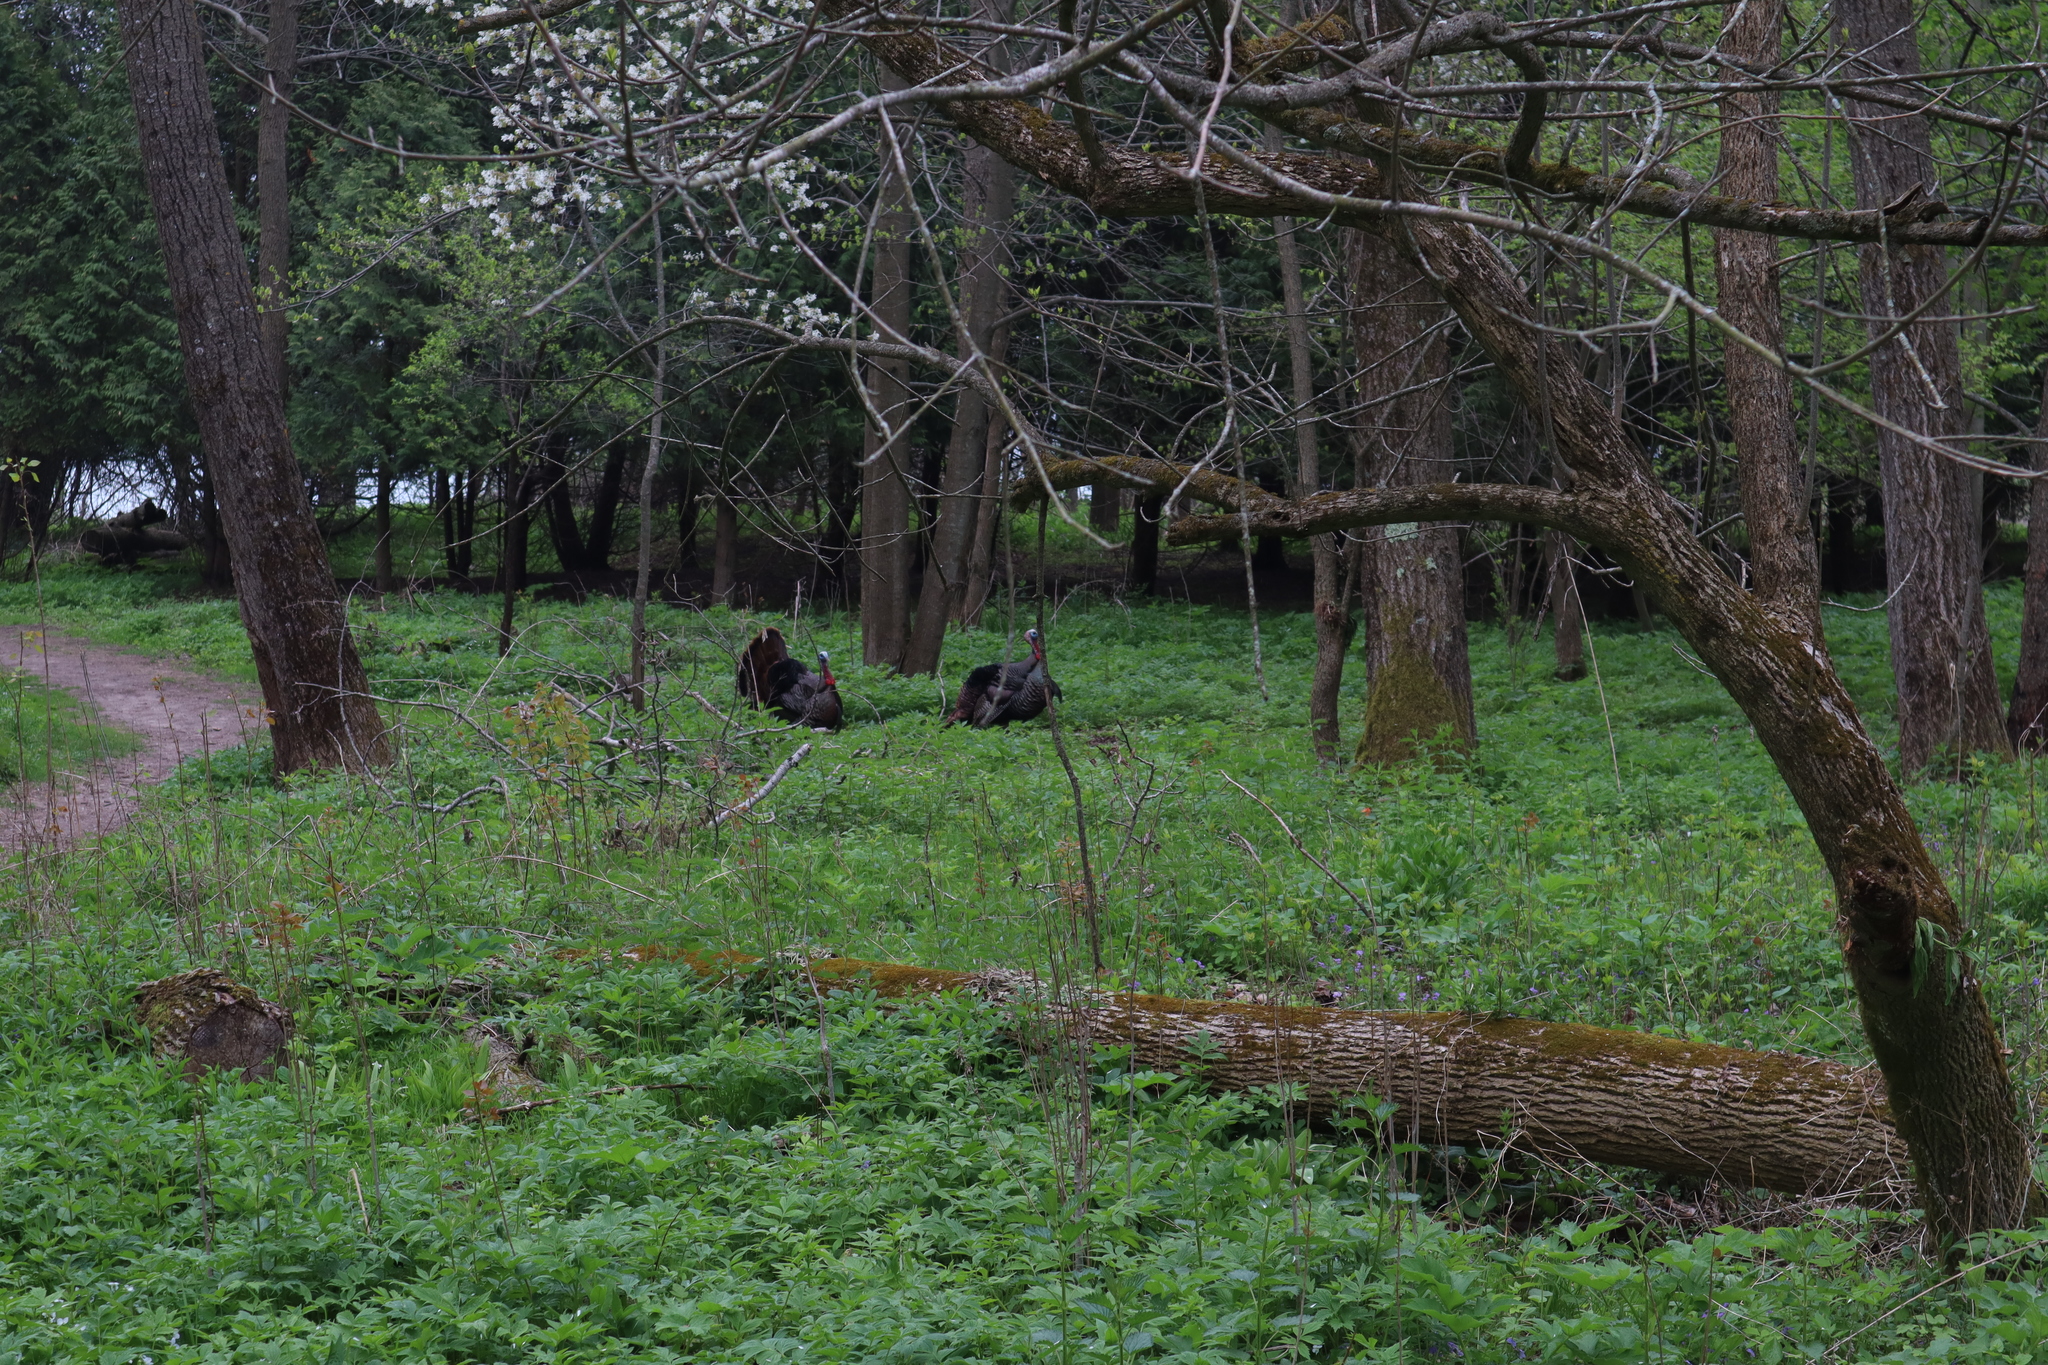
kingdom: Animalia
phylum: Chordata
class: Aves
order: Galliformes
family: Phasianidae
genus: Meleagris
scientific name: Meleagris gallopavo
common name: Wild turkey
